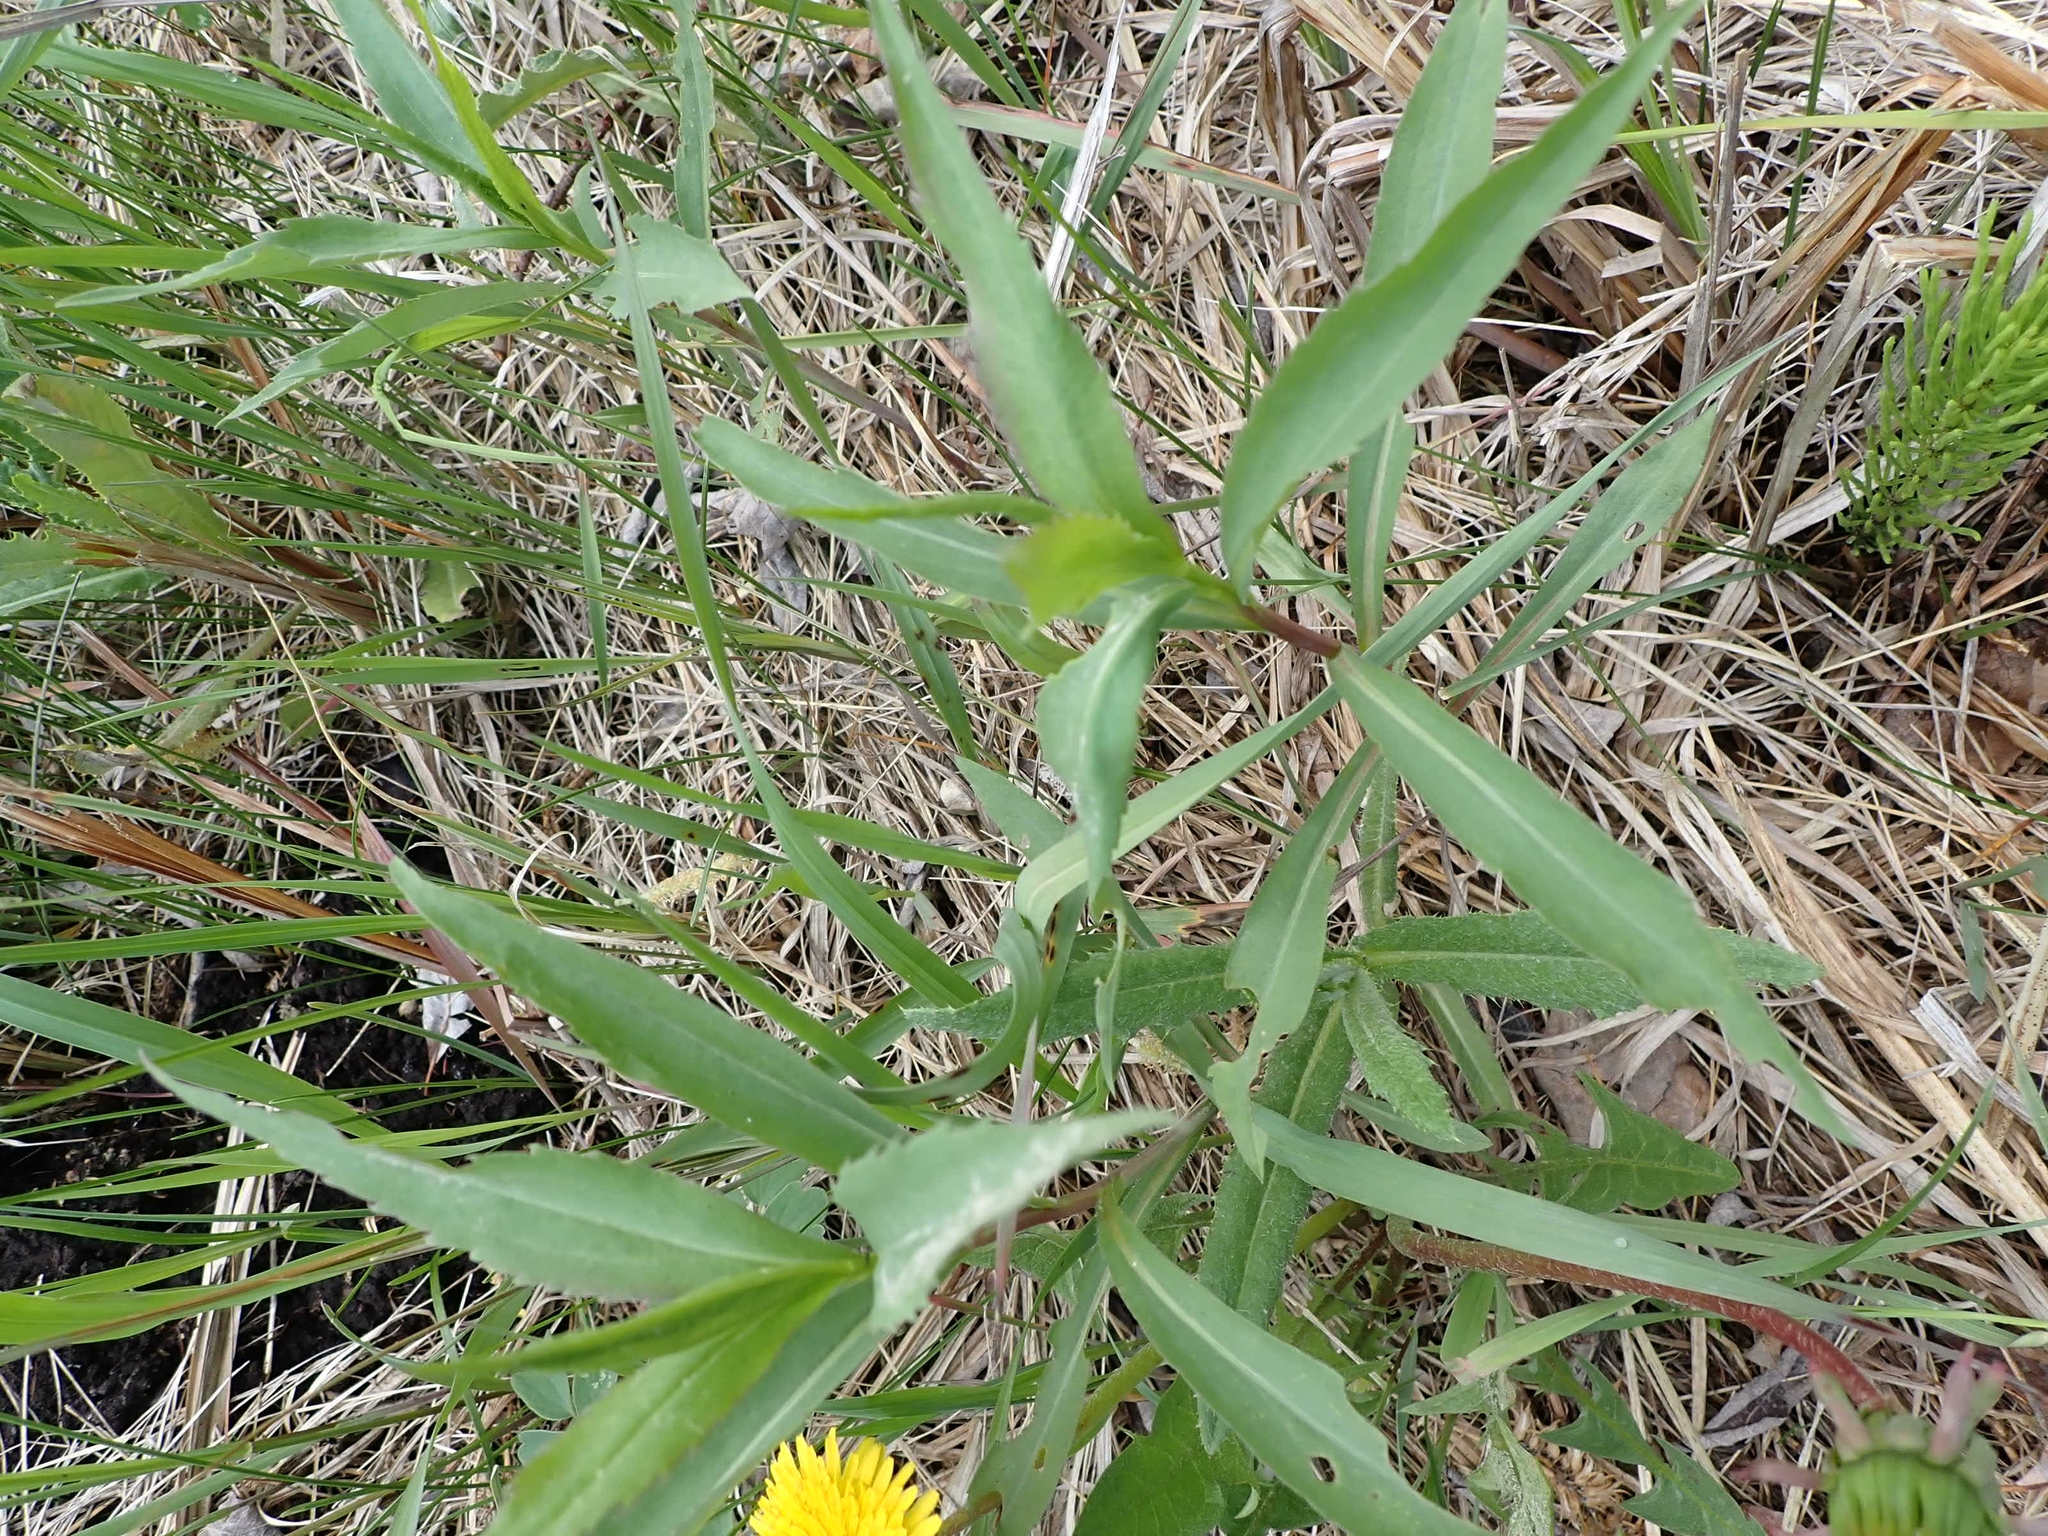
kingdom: Plantae
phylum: Tracheophyta
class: Magnoliopsida
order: Myrtales
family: Onagraceae
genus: Chamaenerion
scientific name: Chamaenerion angustifolium
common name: Fireweed
